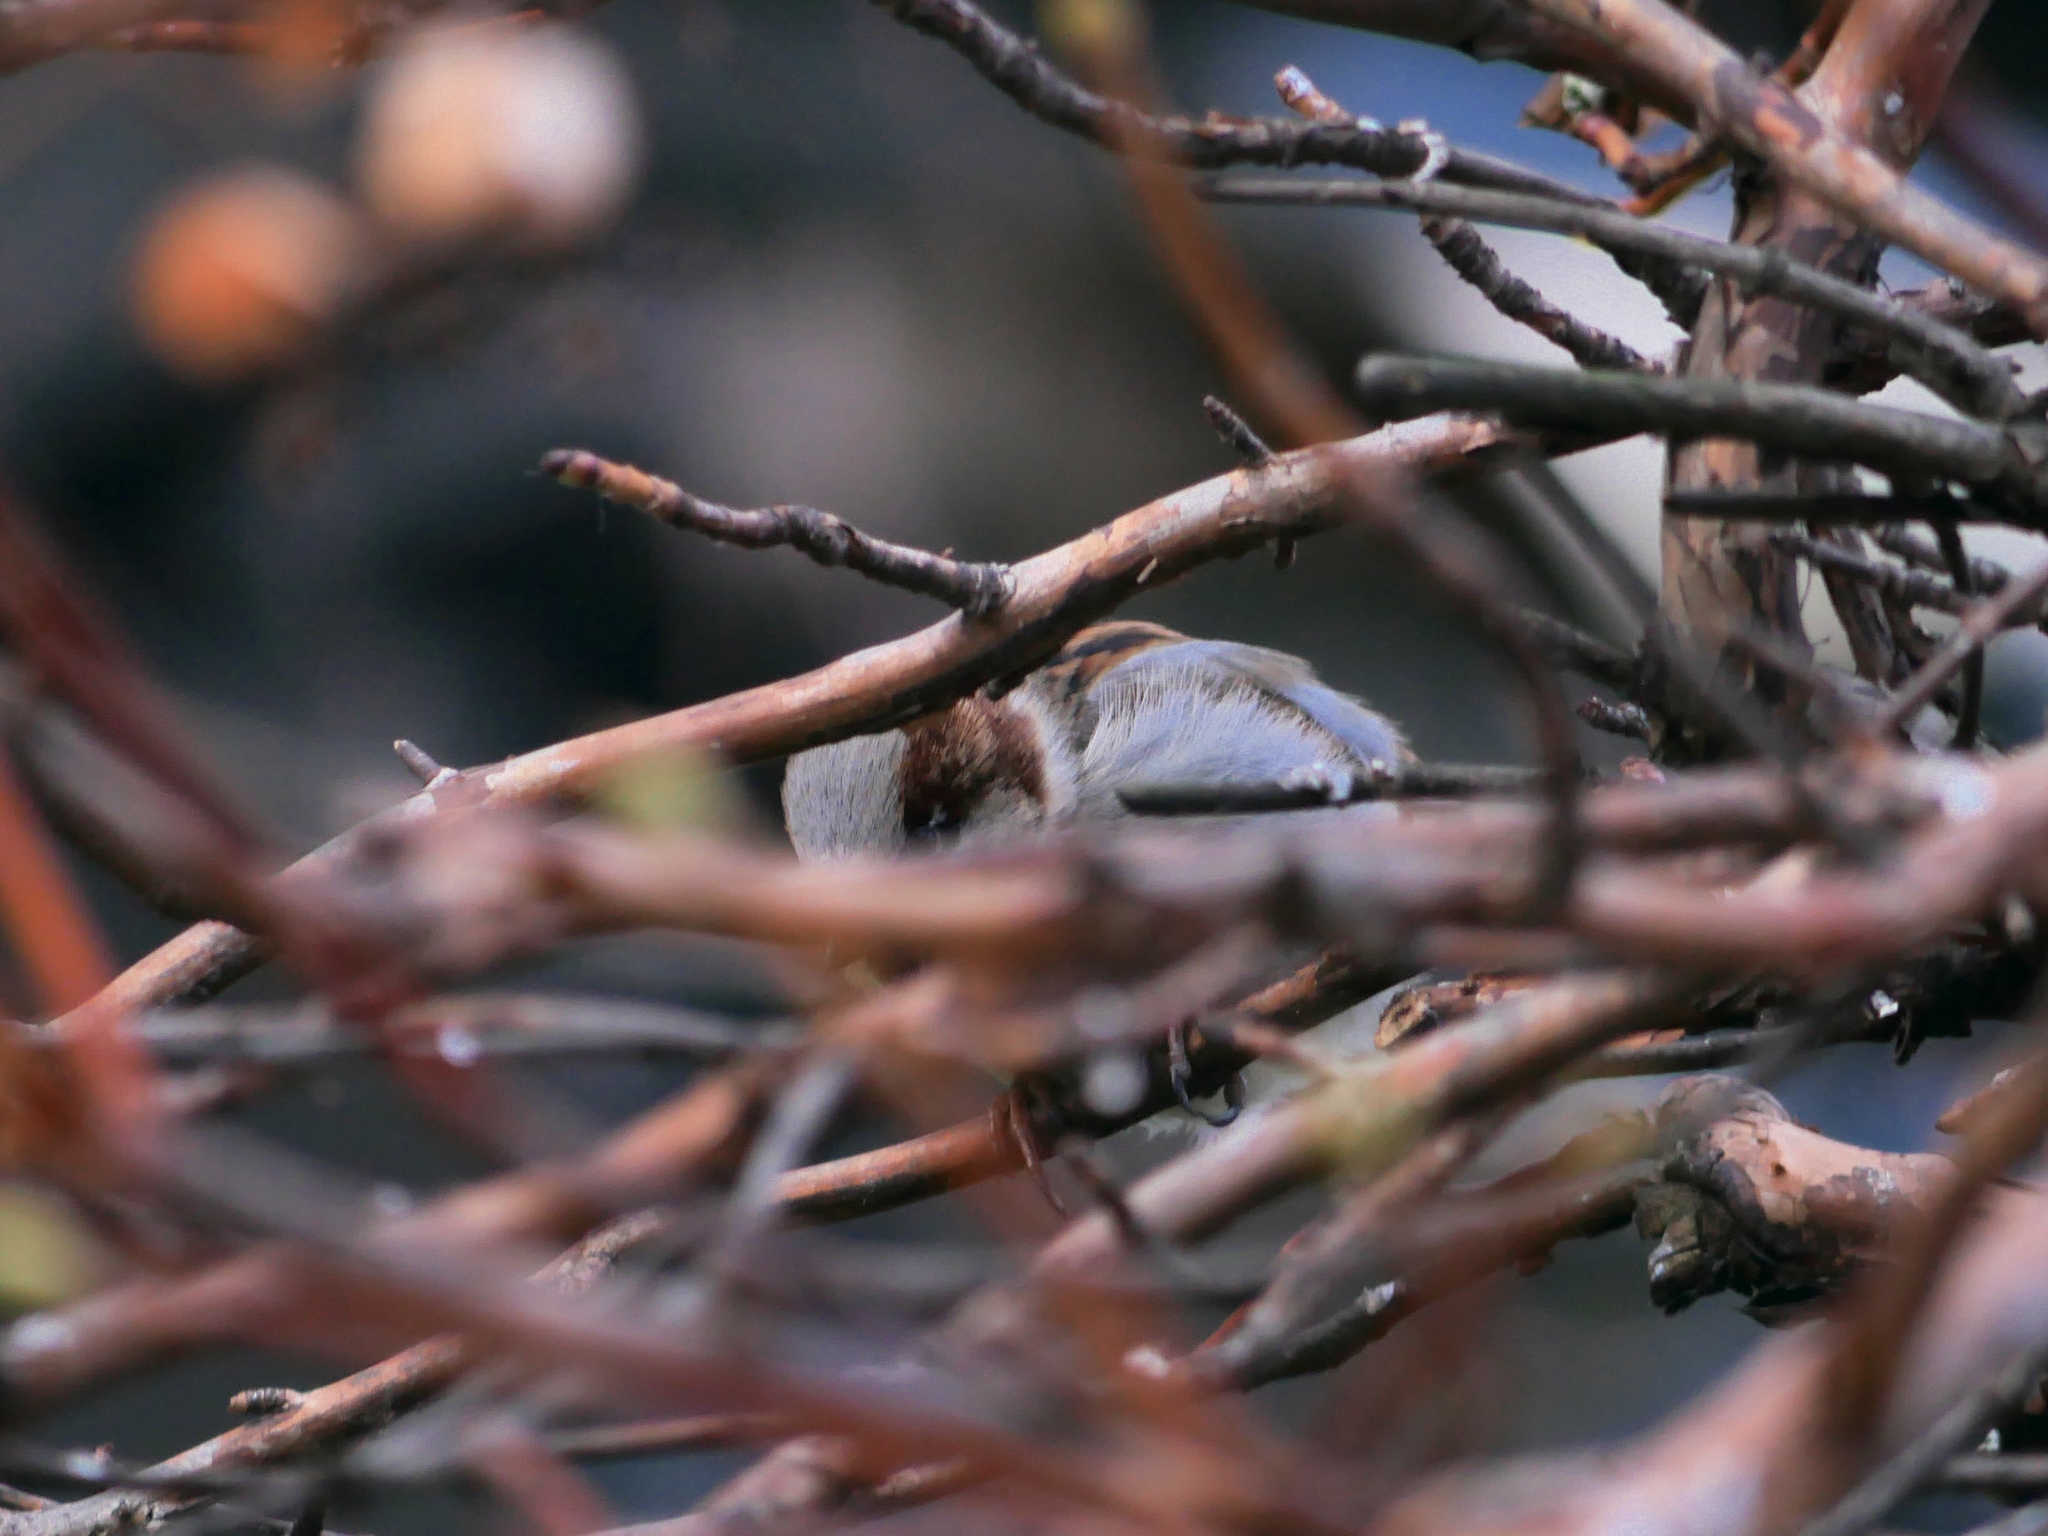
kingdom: Animalia
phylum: Chordata
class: Aves
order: Passeriformes
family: Passeridae
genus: Passer
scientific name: Passer domesticus
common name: House sparrow
